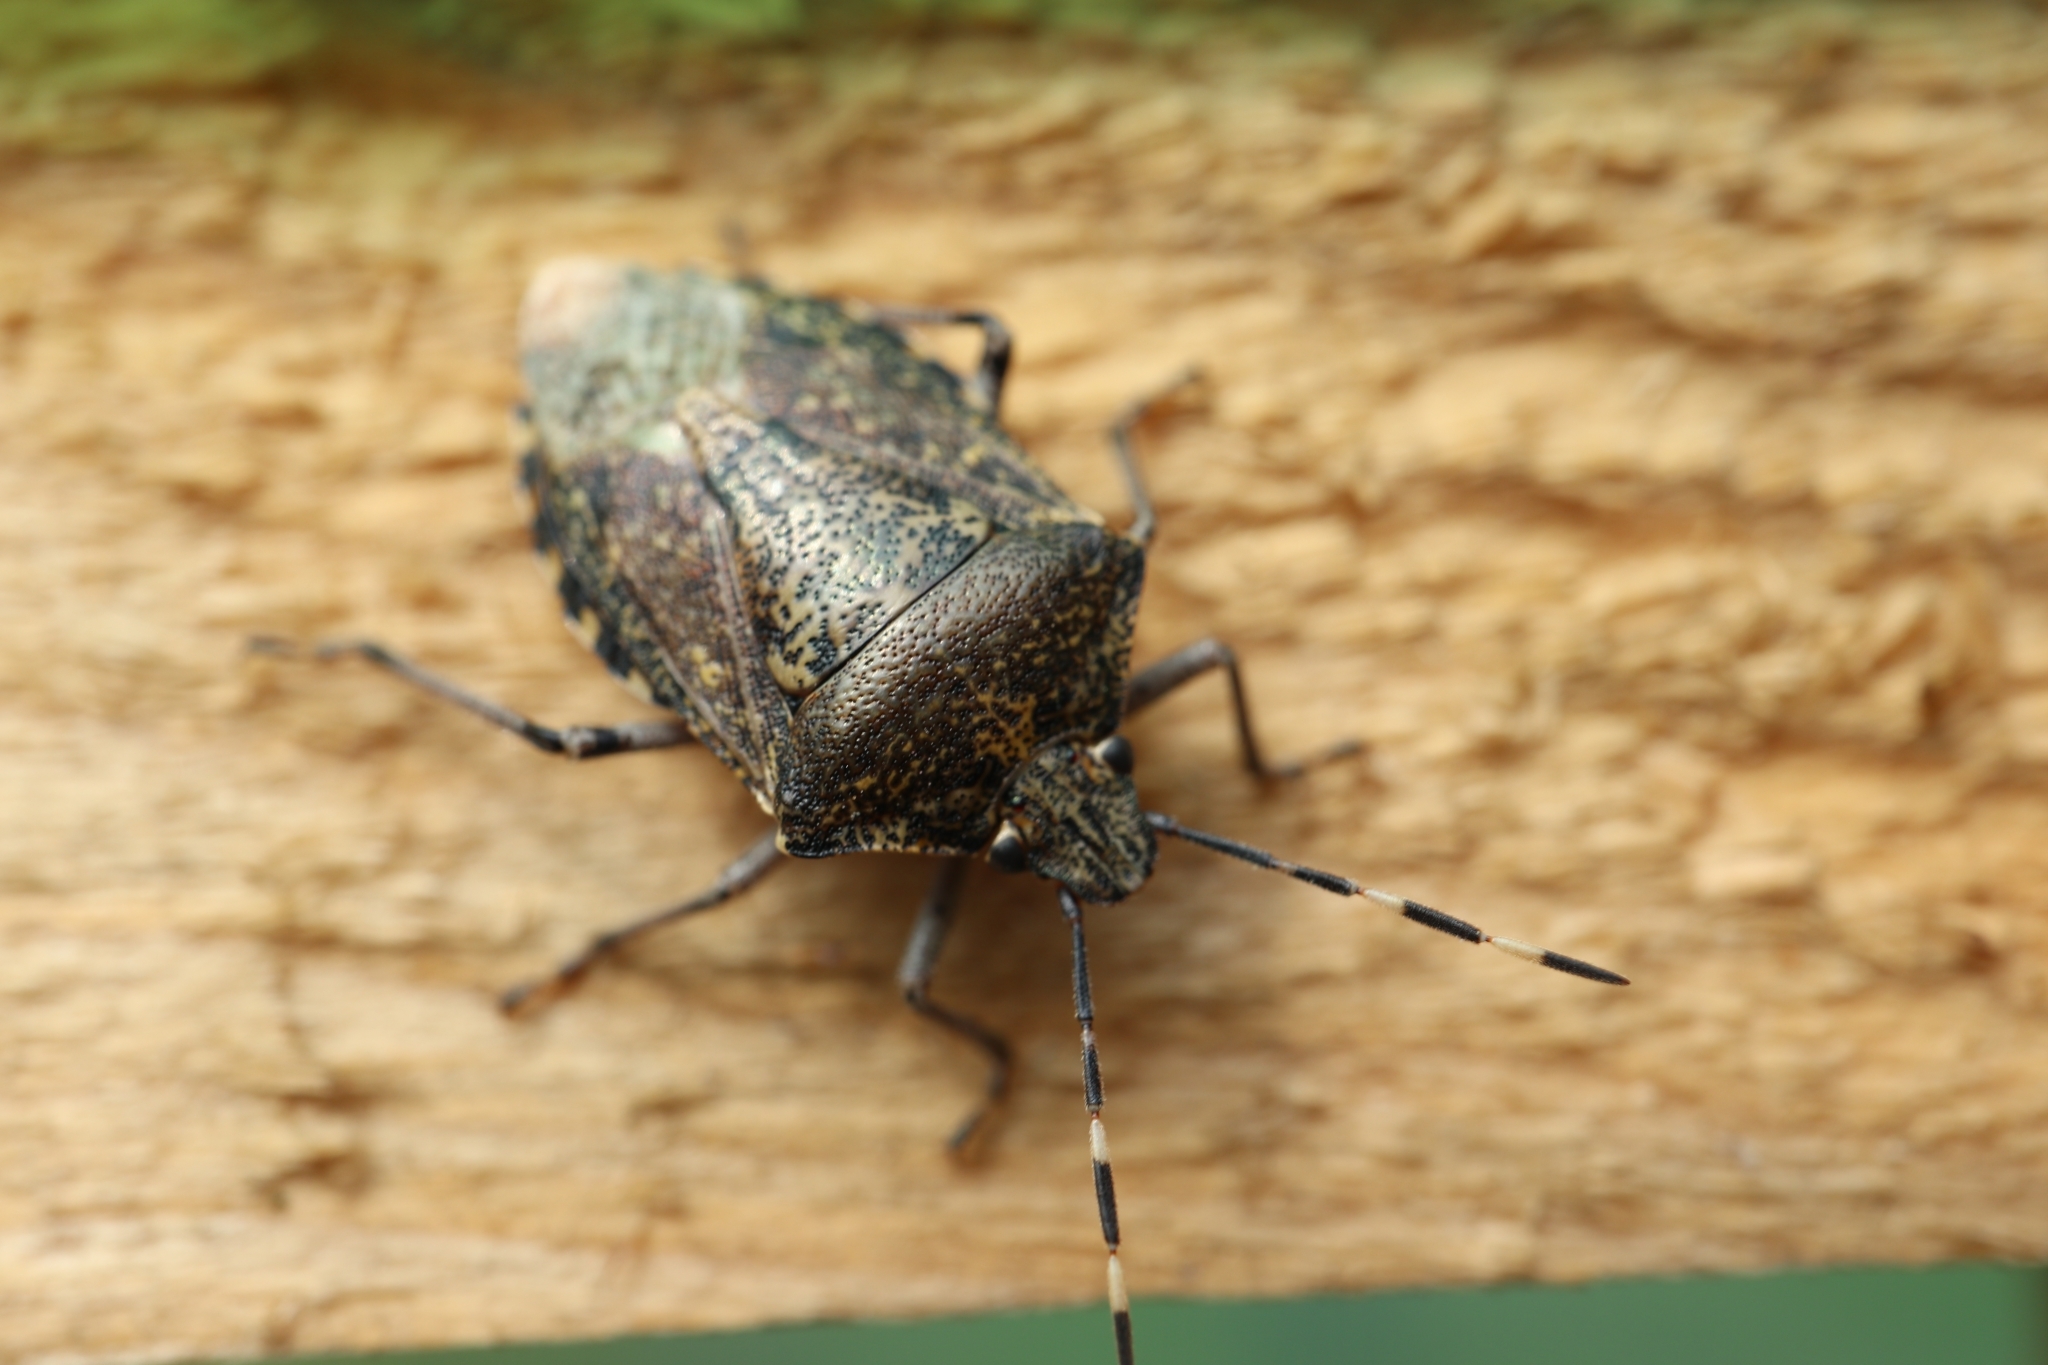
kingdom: Animalia
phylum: Arthropoda
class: Insecta
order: Hemiptera
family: Pentatomidae
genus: Rhaphigaster
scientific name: Rhaphigaster nebulosa
